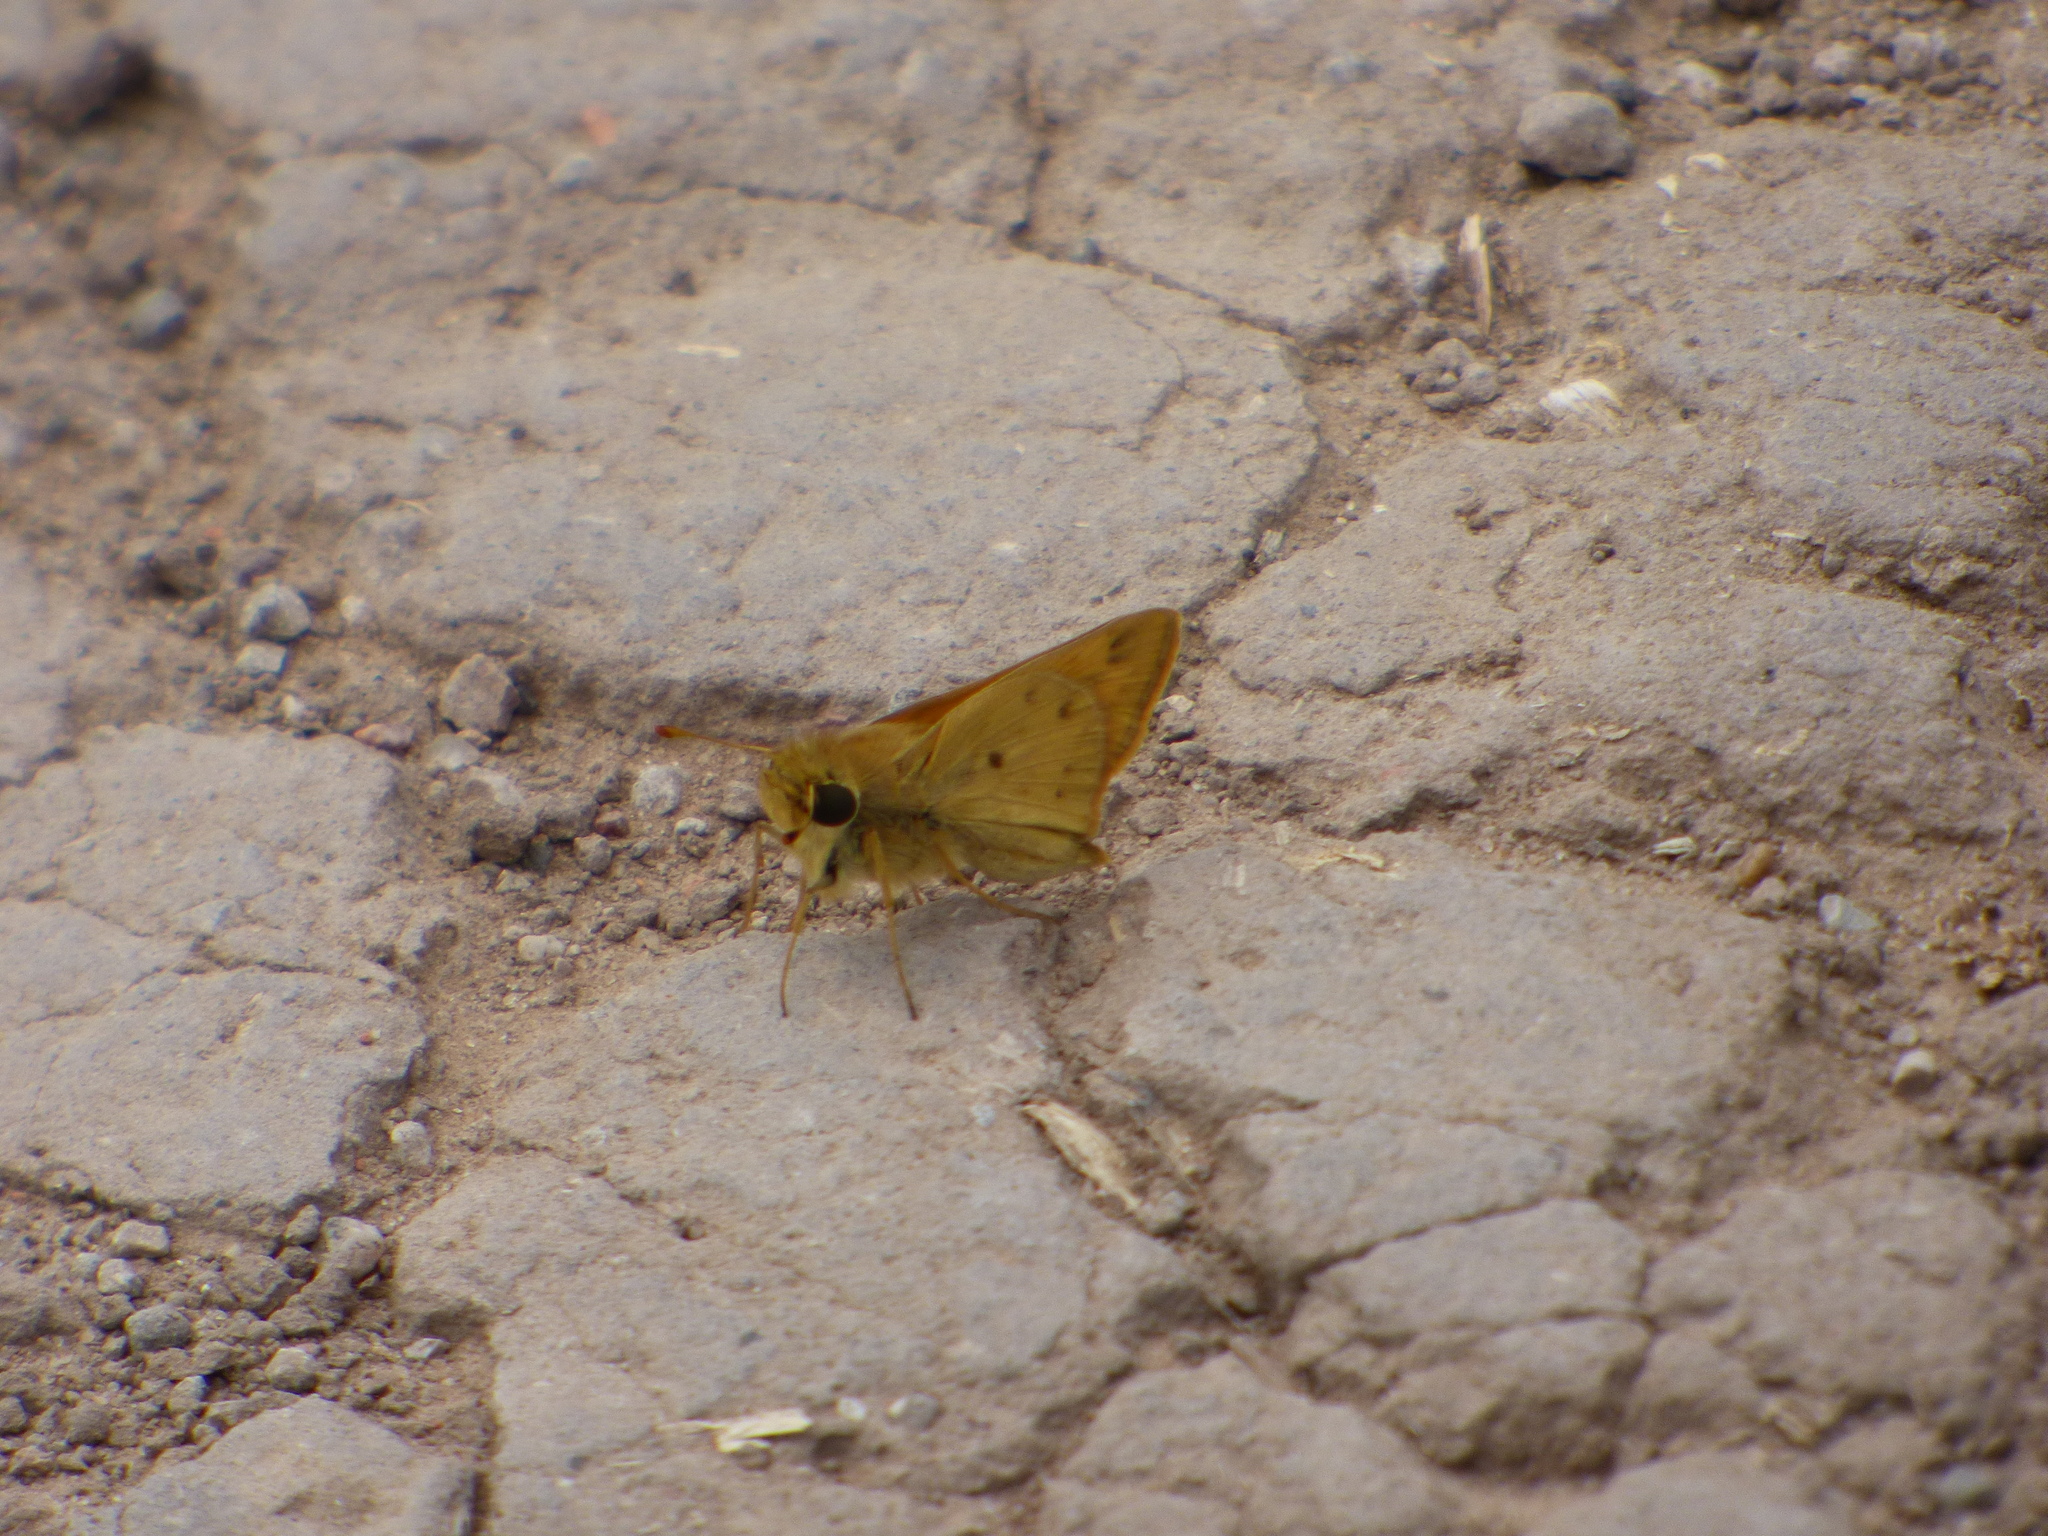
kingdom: Animalia
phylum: Arthropoda
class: Insecta
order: Lepidoptera
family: Hesperiidae
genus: Hylephila
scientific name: Hylephila phyleus
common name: Fiery skipper
